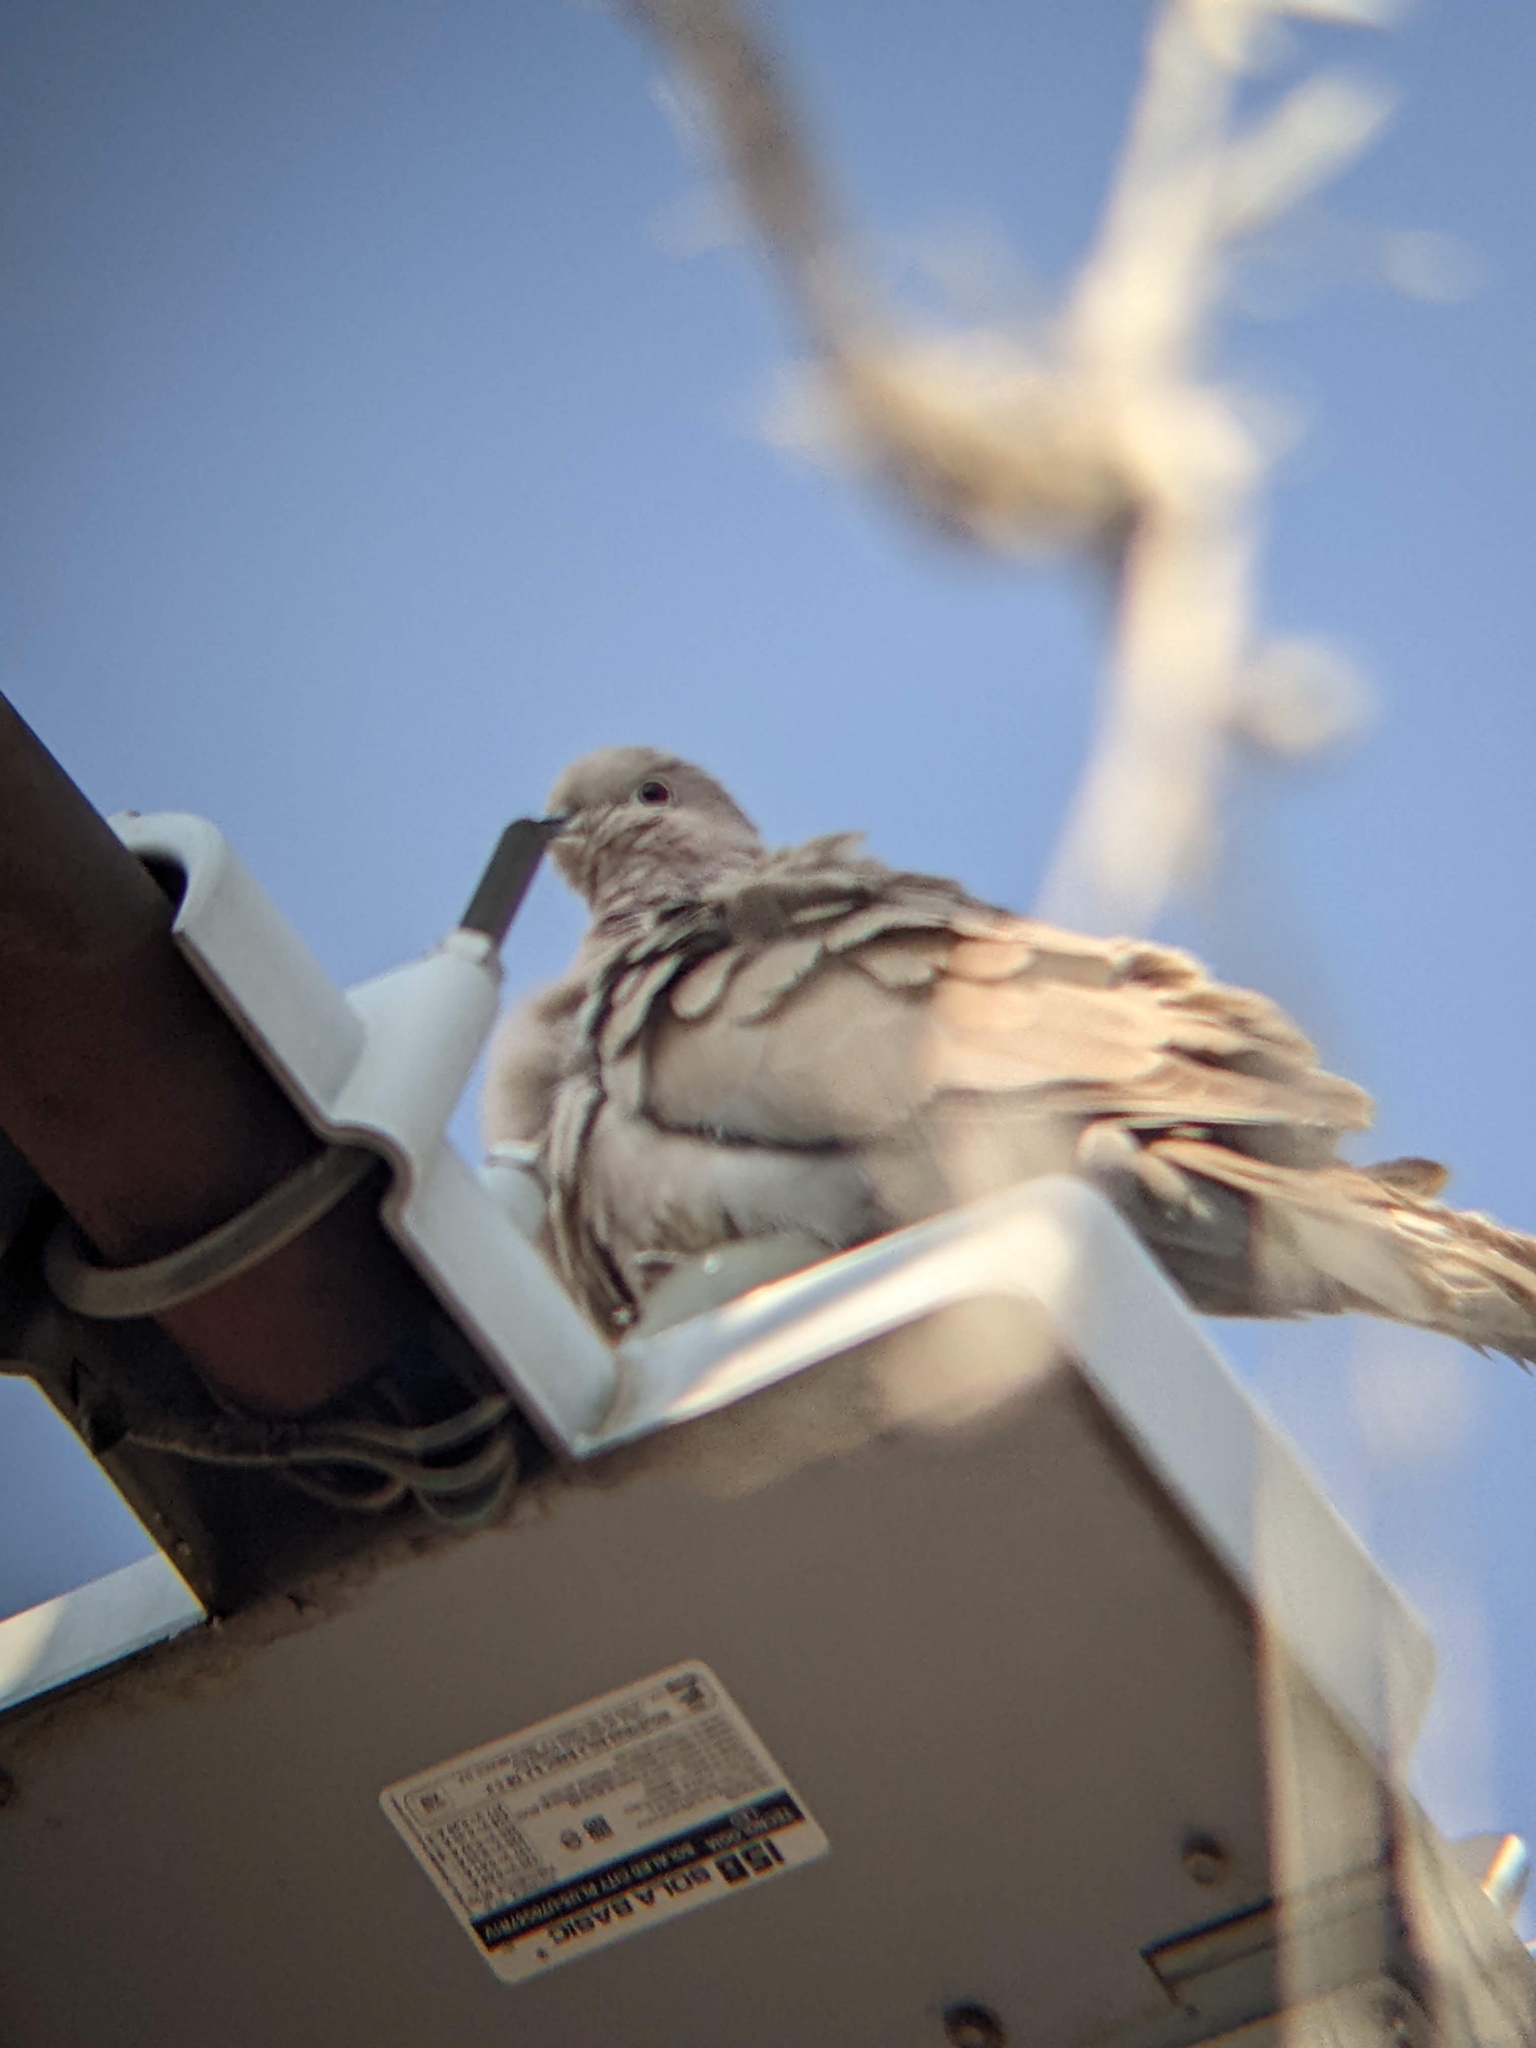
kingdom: Animalia
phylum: Chordata
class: Aves
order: Columbiformes
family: Columbidae
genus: Streptopelia
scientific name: Streptopelia decaocto
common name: Eurasian collared dove
